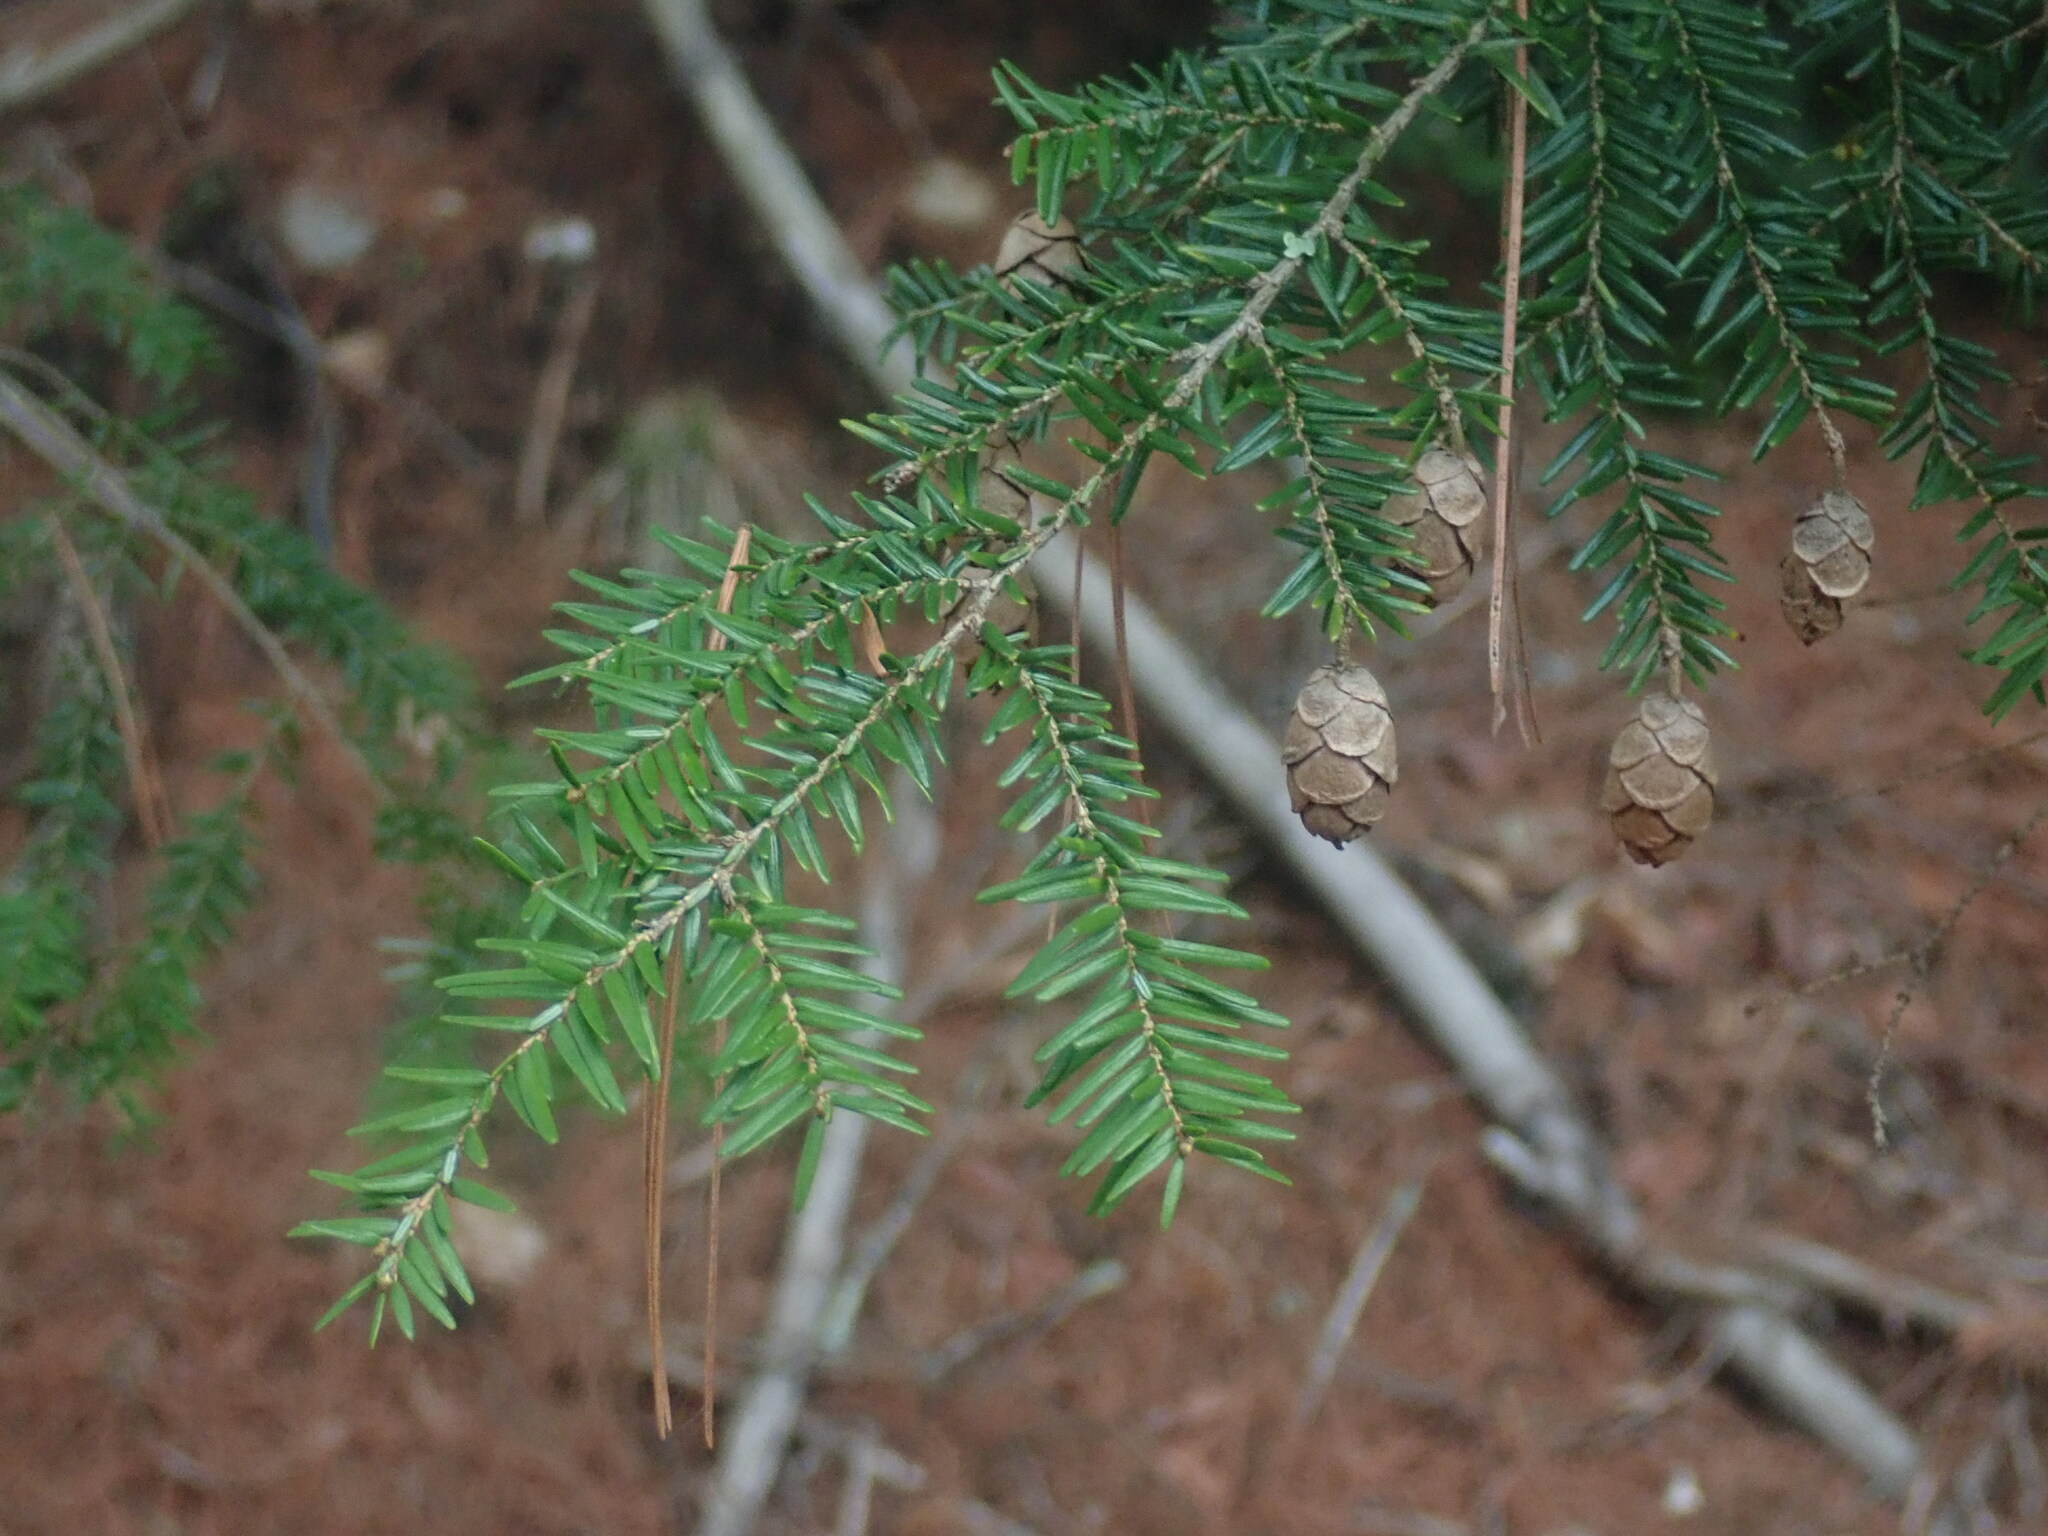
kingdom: Plantae
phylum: Tracheophyta
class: Pinopsida
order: Pinales
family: Pinaceae
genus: Tsuga
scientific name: Tsuga canadensis
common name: Eastern hemlock
